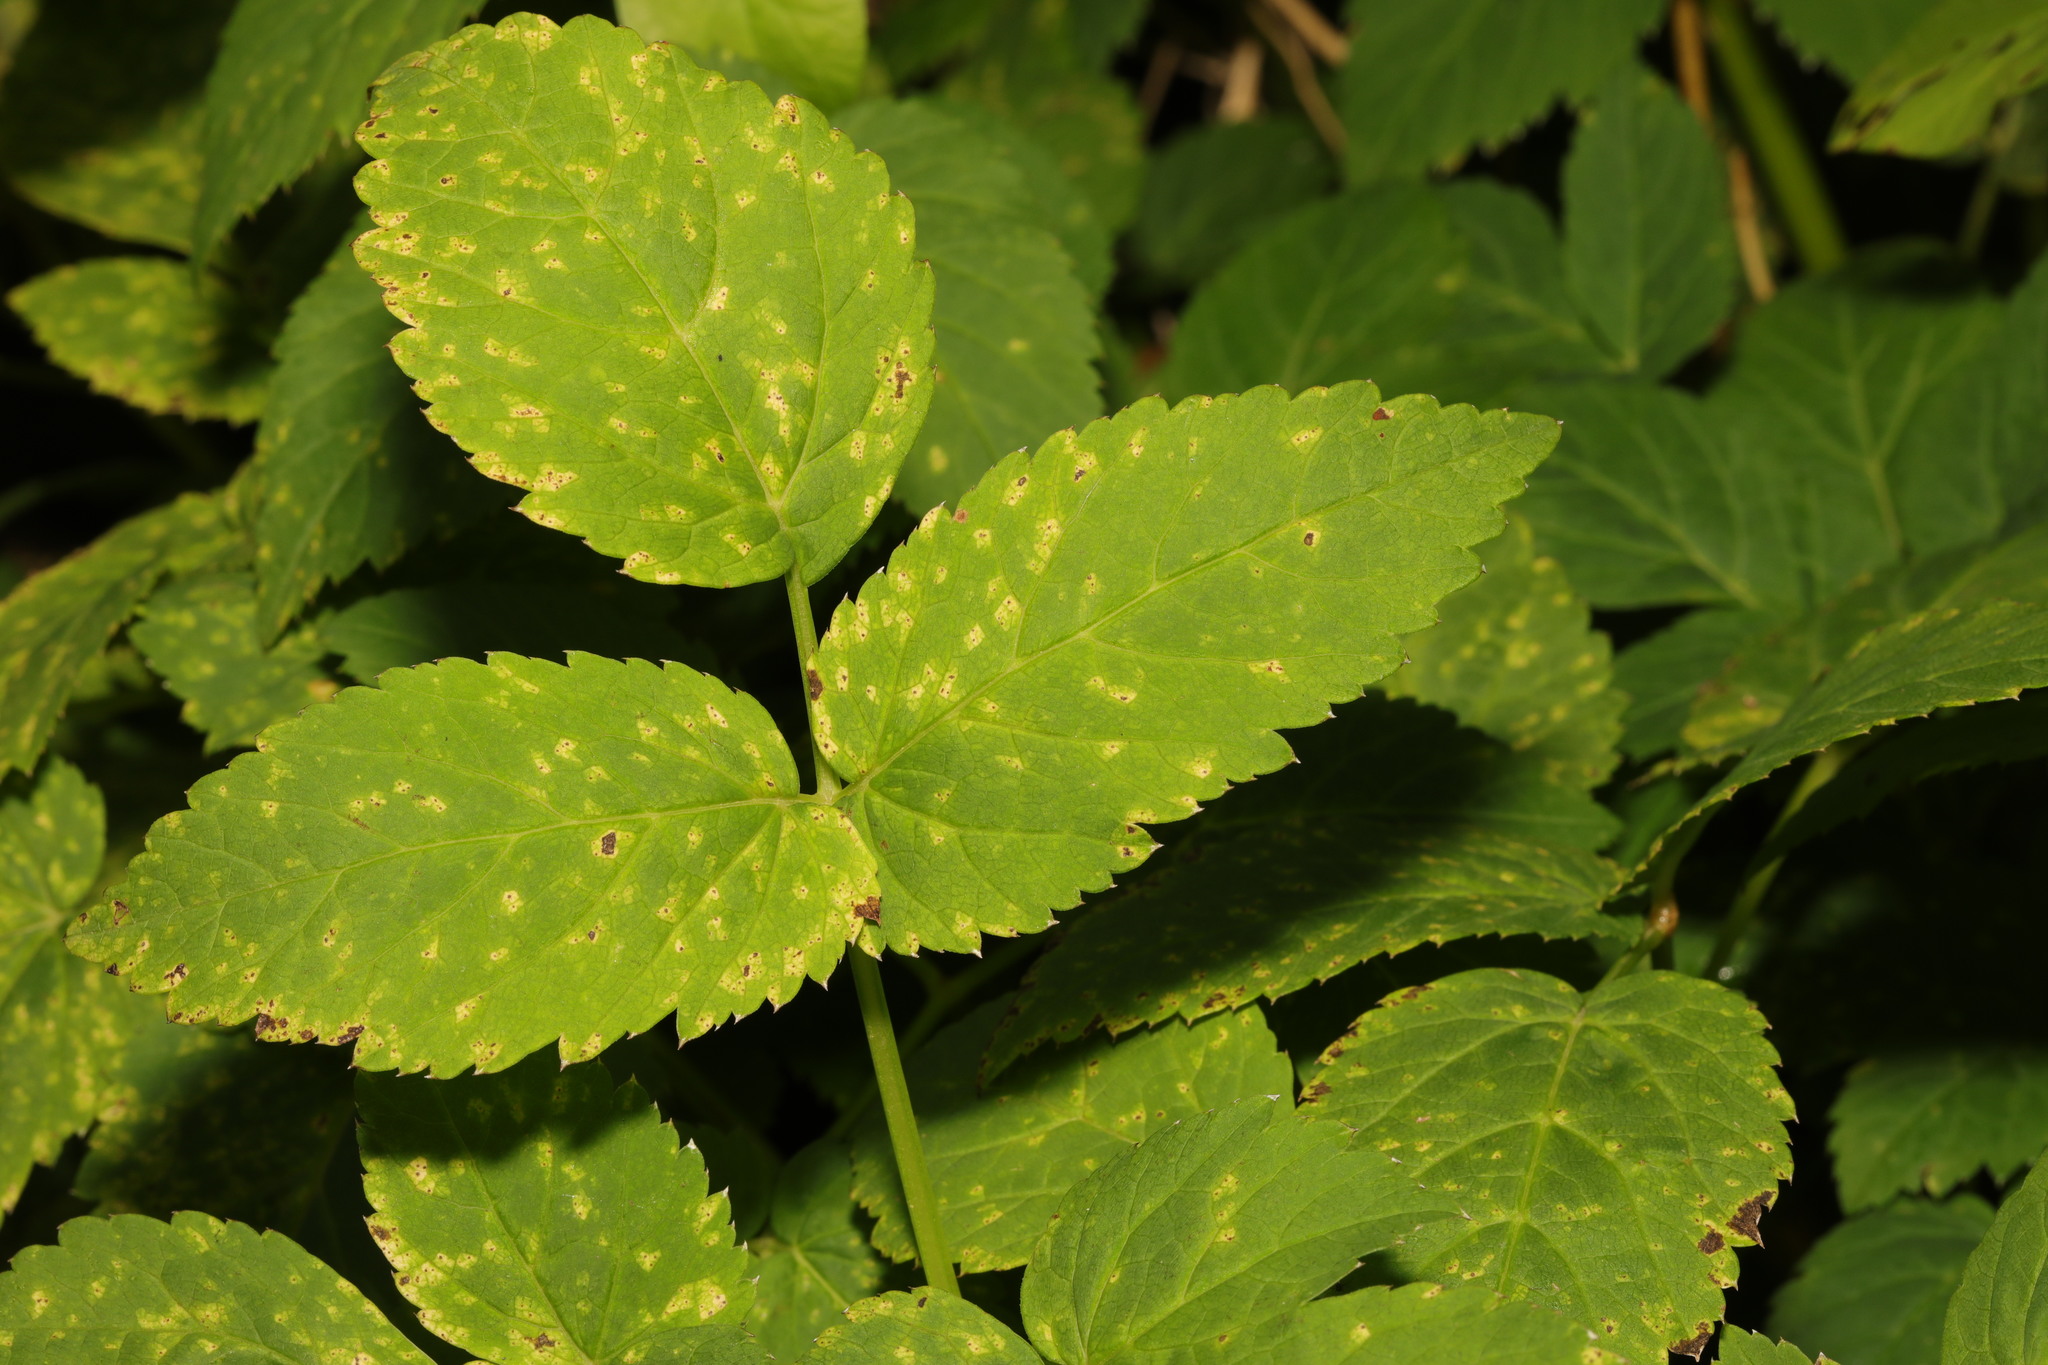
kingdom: Plantae
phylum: Tracheophyta
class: Magnoliopsida
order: Apiales
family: Apiaceae
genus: Aegopodium
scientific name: Aegopodium podagraria
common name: Ground-elder
